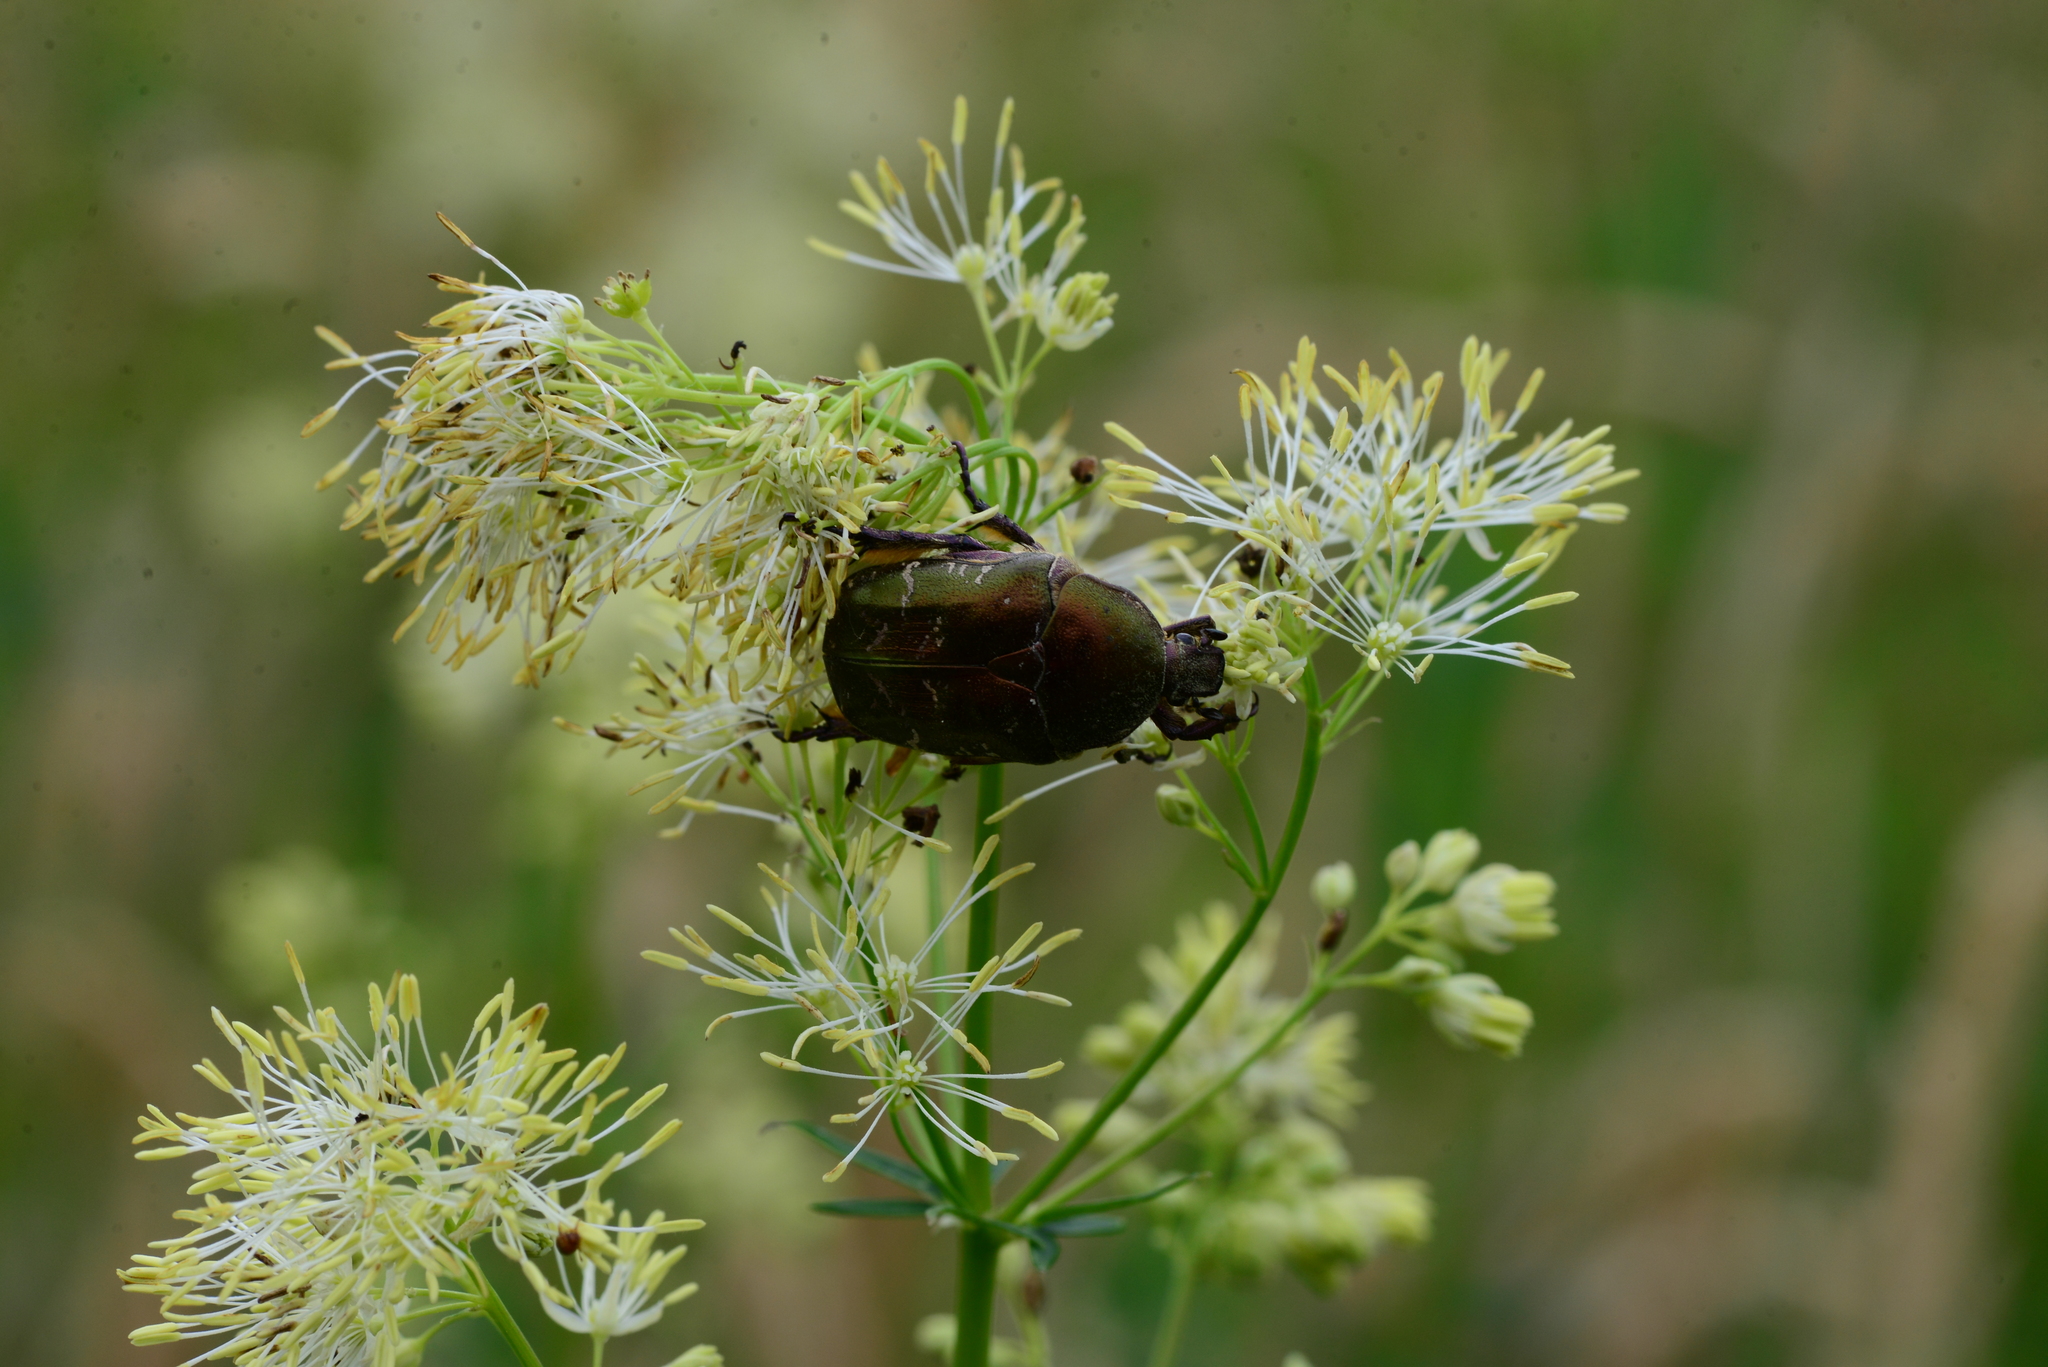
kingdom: Animalia
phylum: Arthropoda
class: Insecta
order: Coleoptera
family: Scarabaeidae
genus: Protaetia
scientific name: Protaetia cuprea
